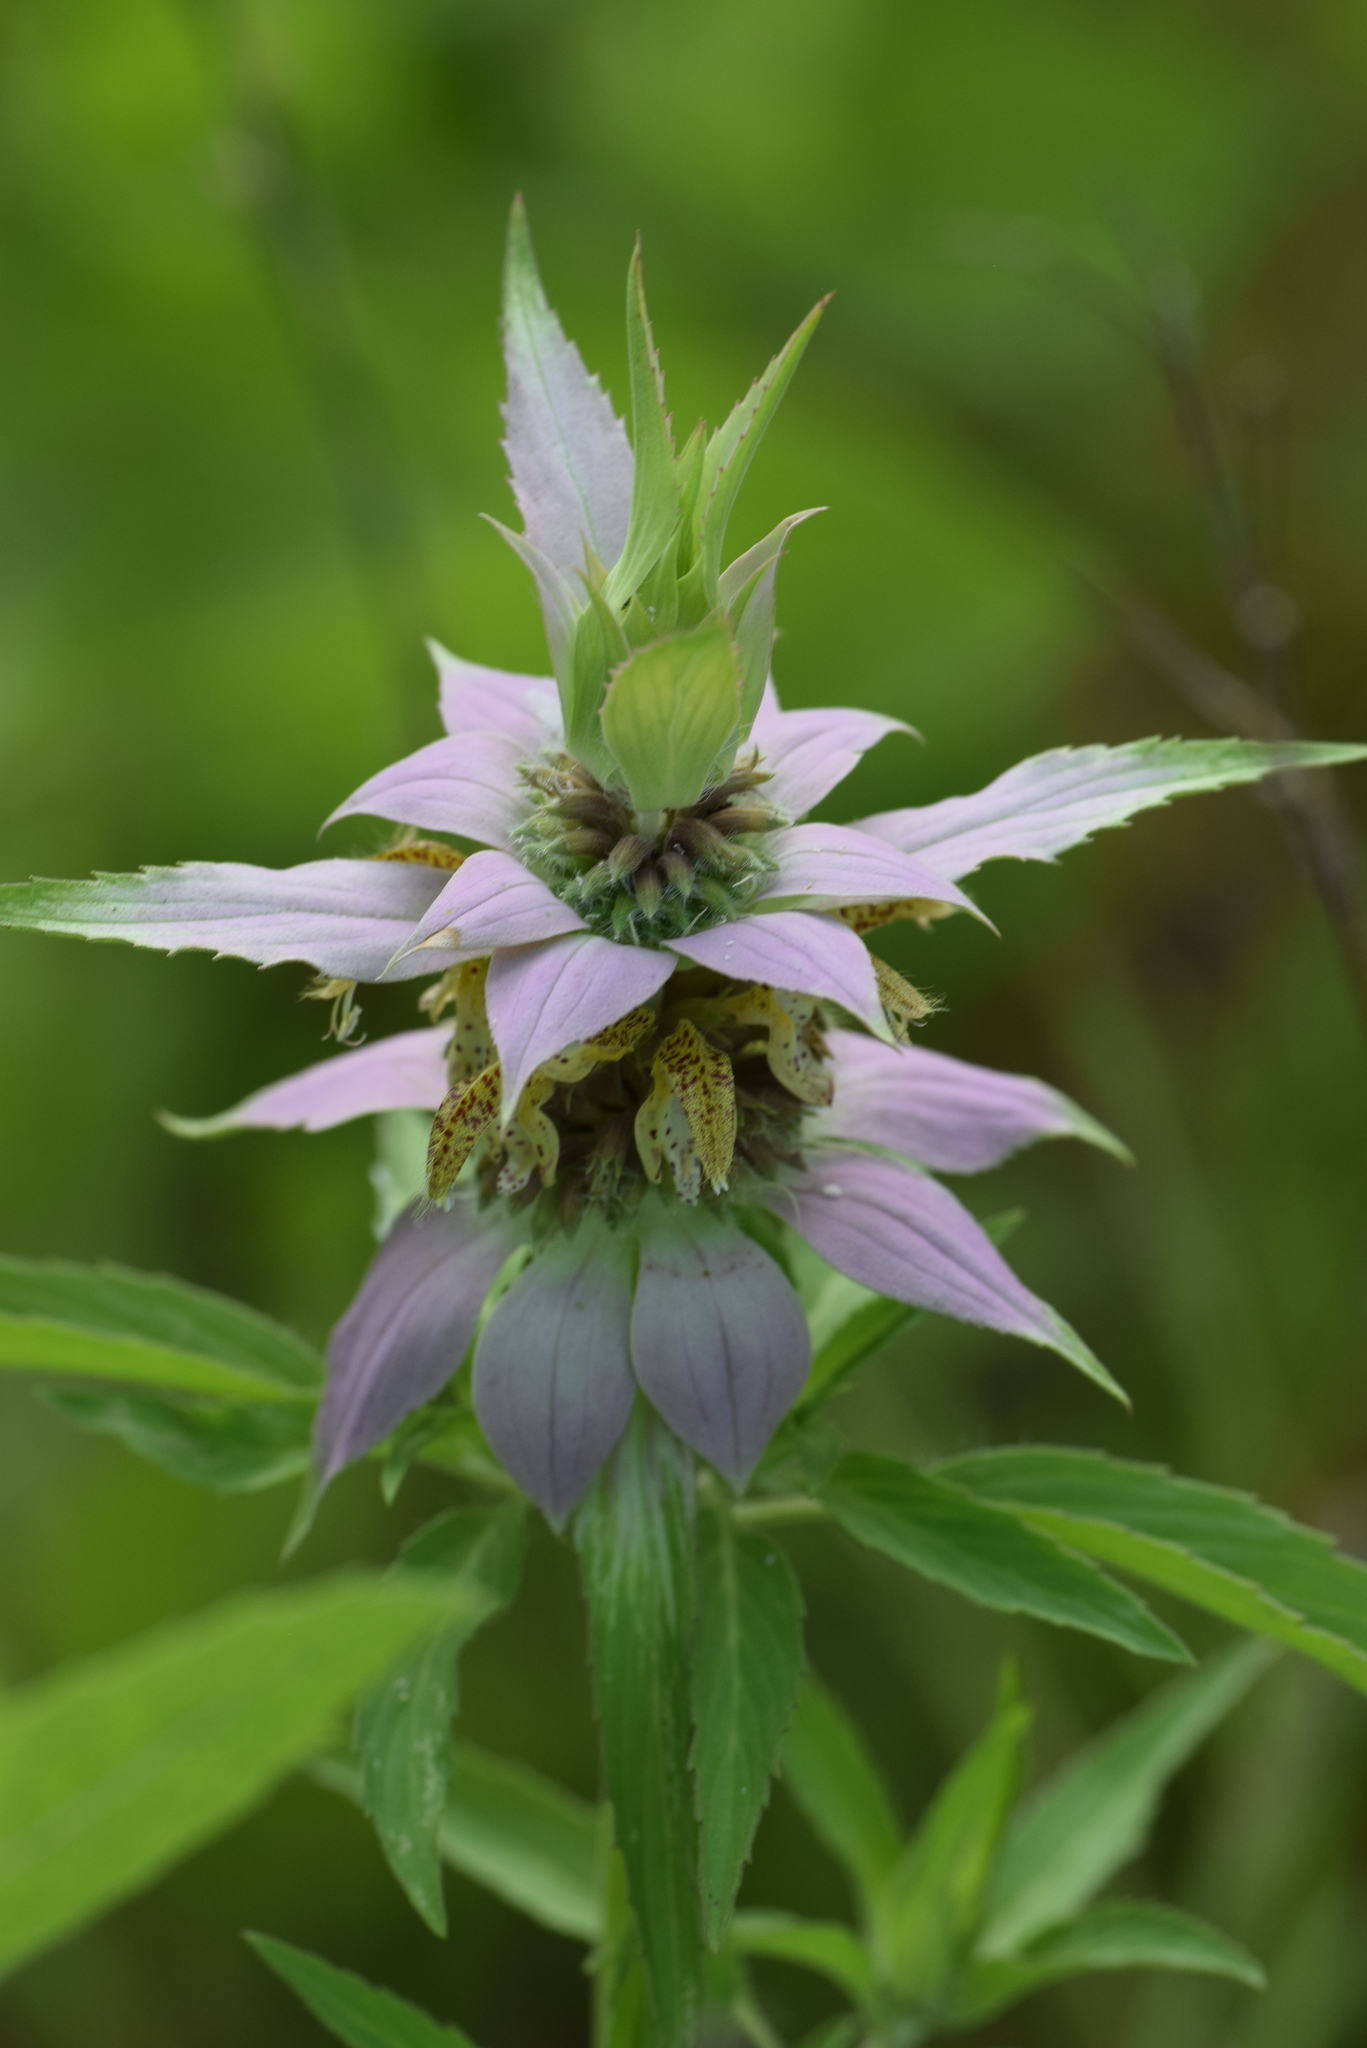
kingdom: Plantae
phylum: Tracheophyta
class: Magnoliopsida
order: Lamiales
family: Lamiaceae
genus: Monarda
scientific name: Monarda punctata
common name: Dotted monarda
